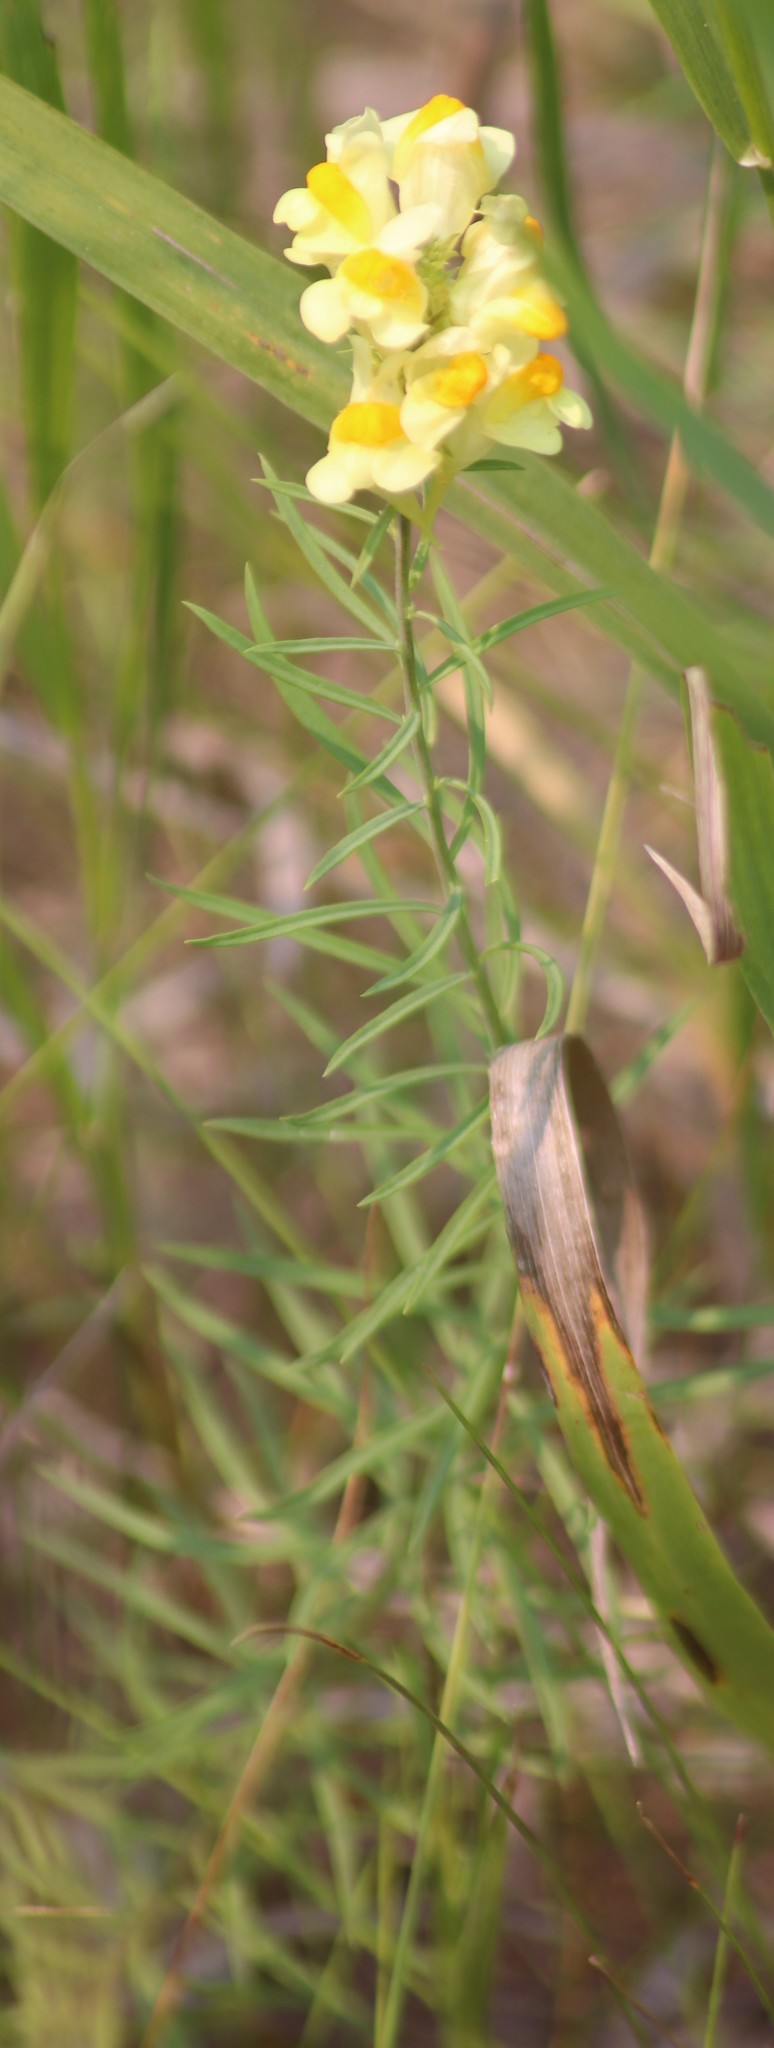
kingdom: Plantae
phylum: Tracheophyta
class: Magnoliopsida
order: Lamiales
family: Plantaginaceae
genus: Linaria
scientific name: Linaria vulgaris
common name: Butter and eggs
